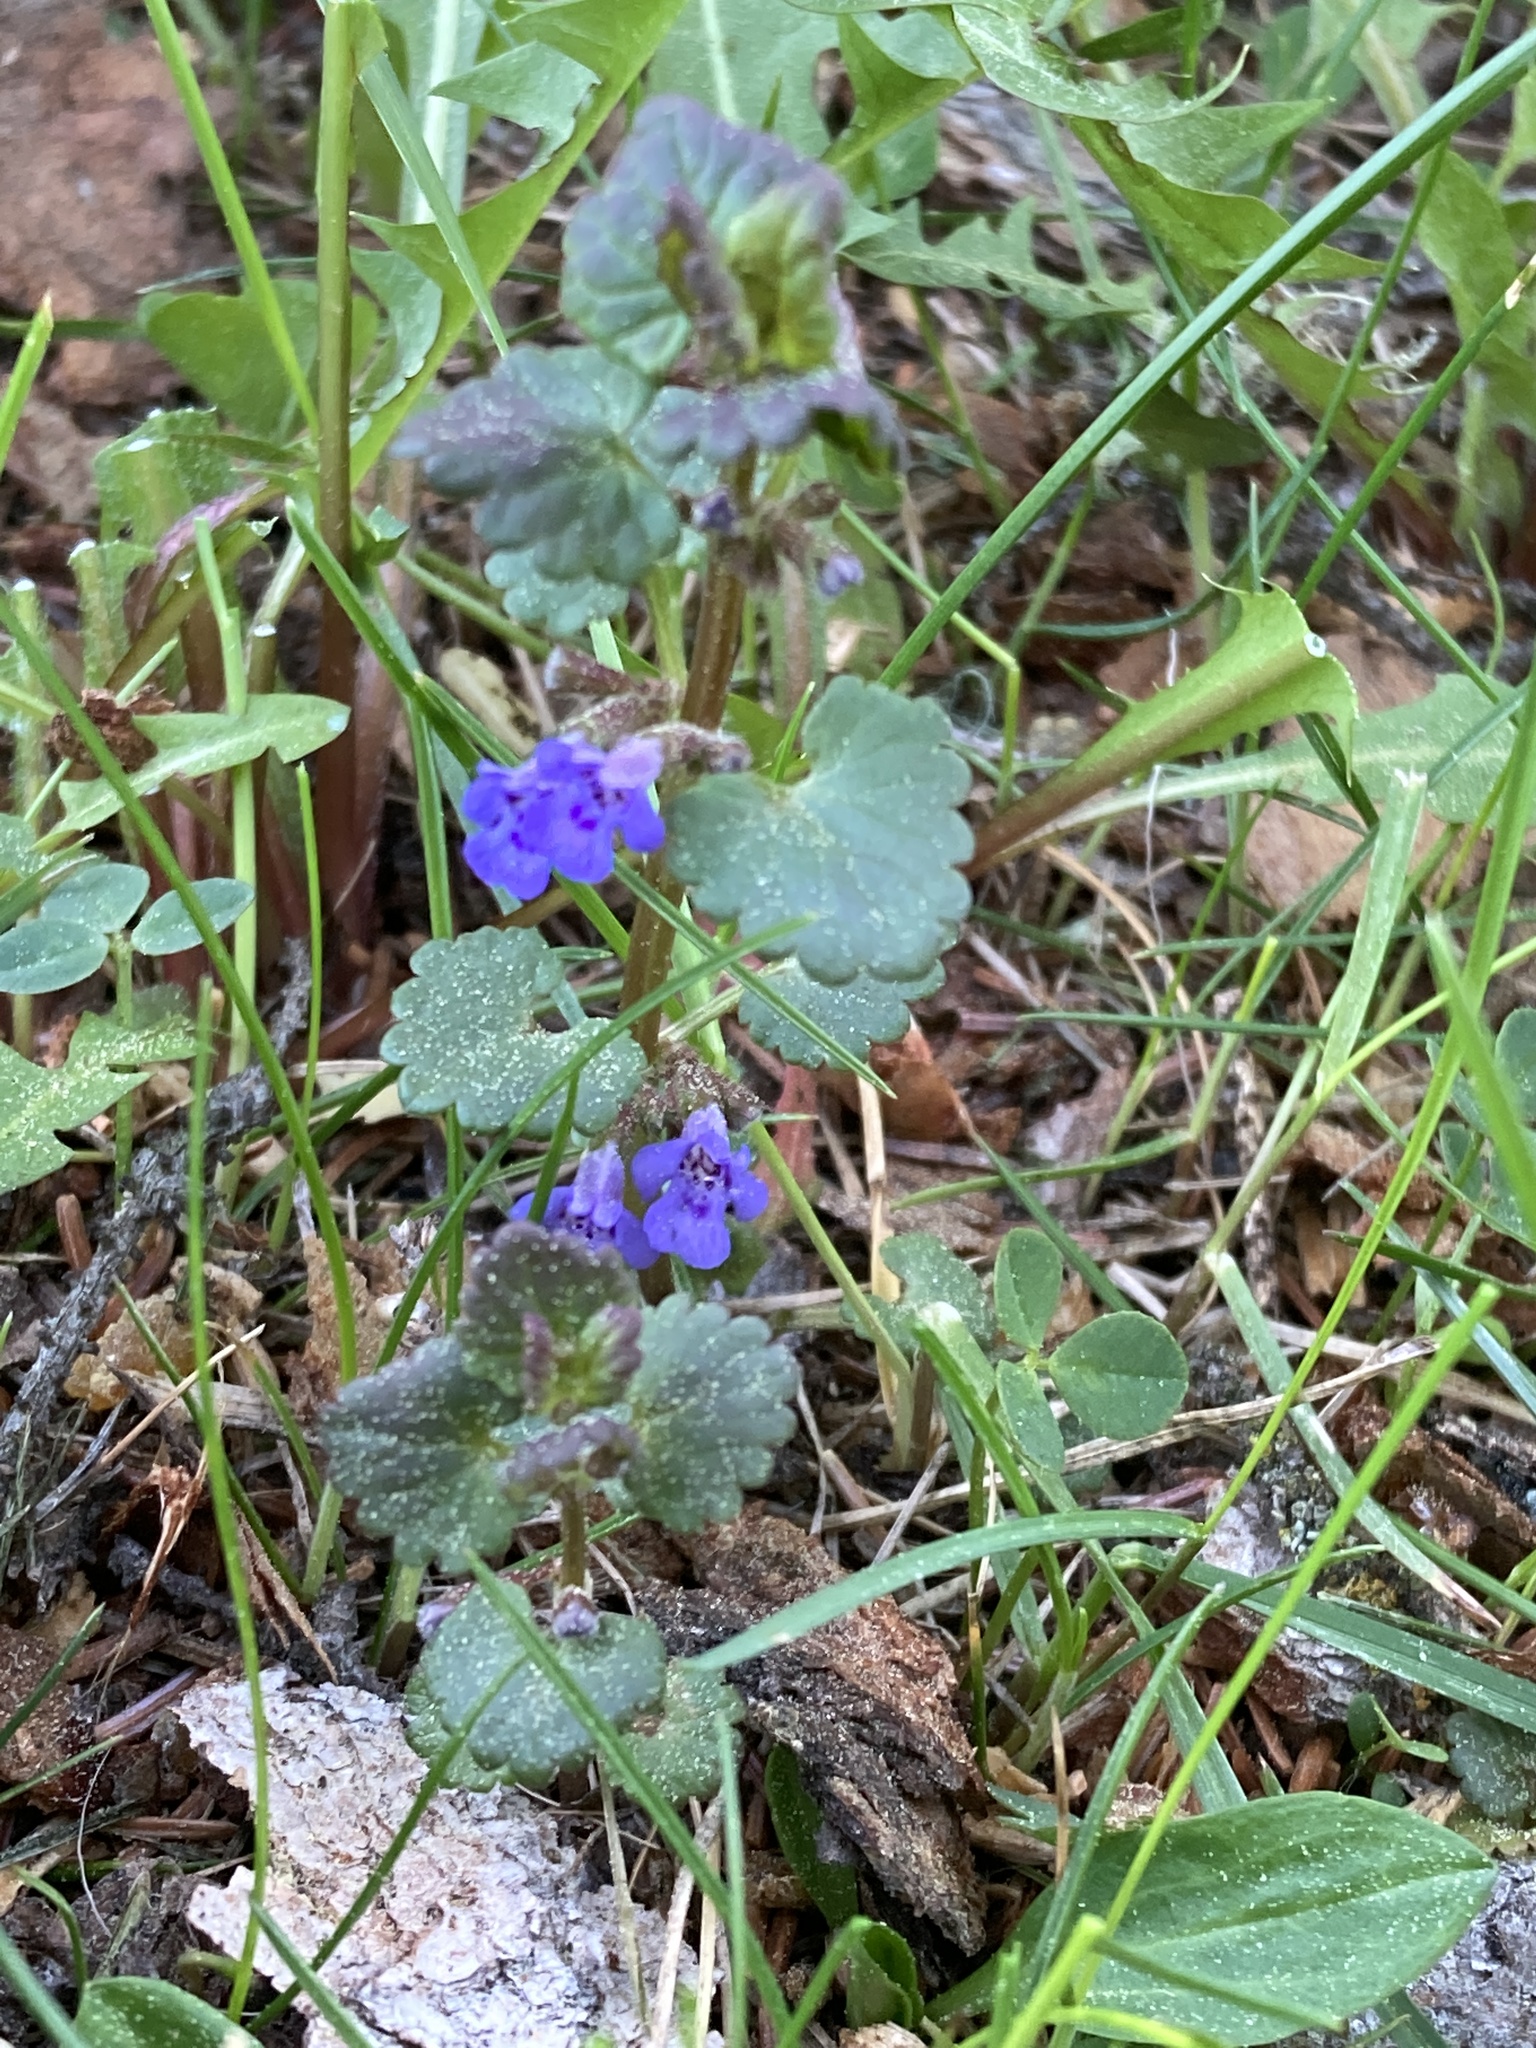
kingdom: Plantae
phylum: Tracheophyta
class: Magnoliopsida
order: Lamiales
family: Lamiaceae
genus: Glechoma
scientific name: Glechoma hederacea
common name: Ground ivy
